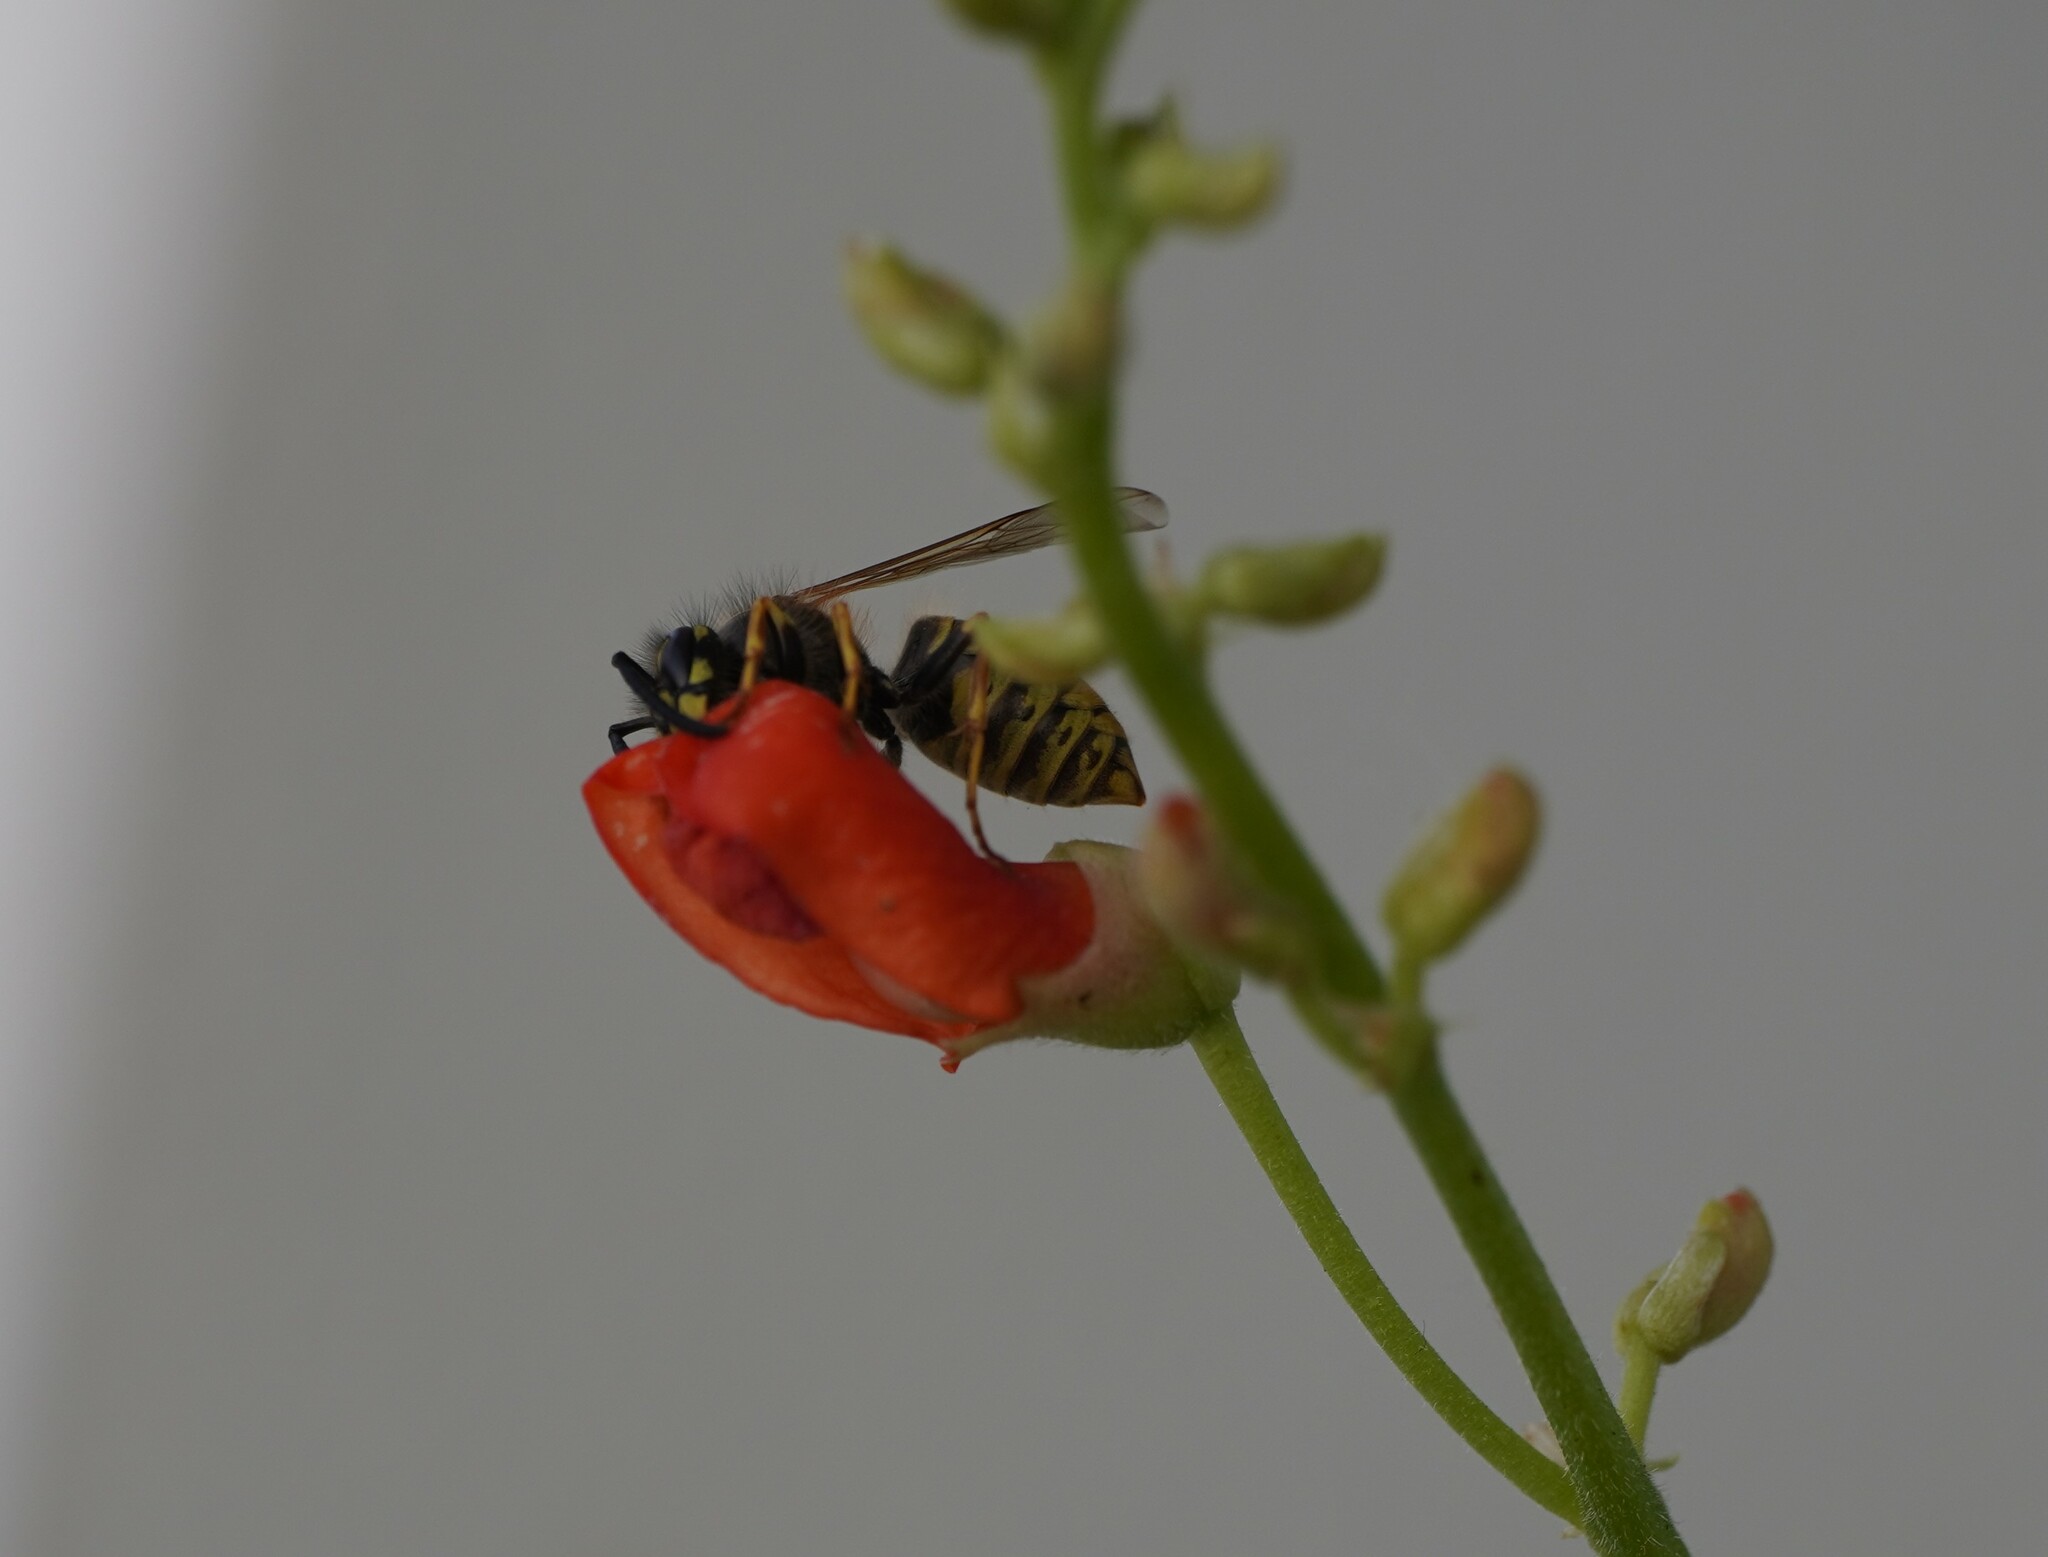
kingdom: Animalia
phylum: Arthropoda
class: Insecta
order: Hymenoptera
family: Vespidae
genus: Vespula
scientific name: Vespula vulgaris
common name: Common wasp
